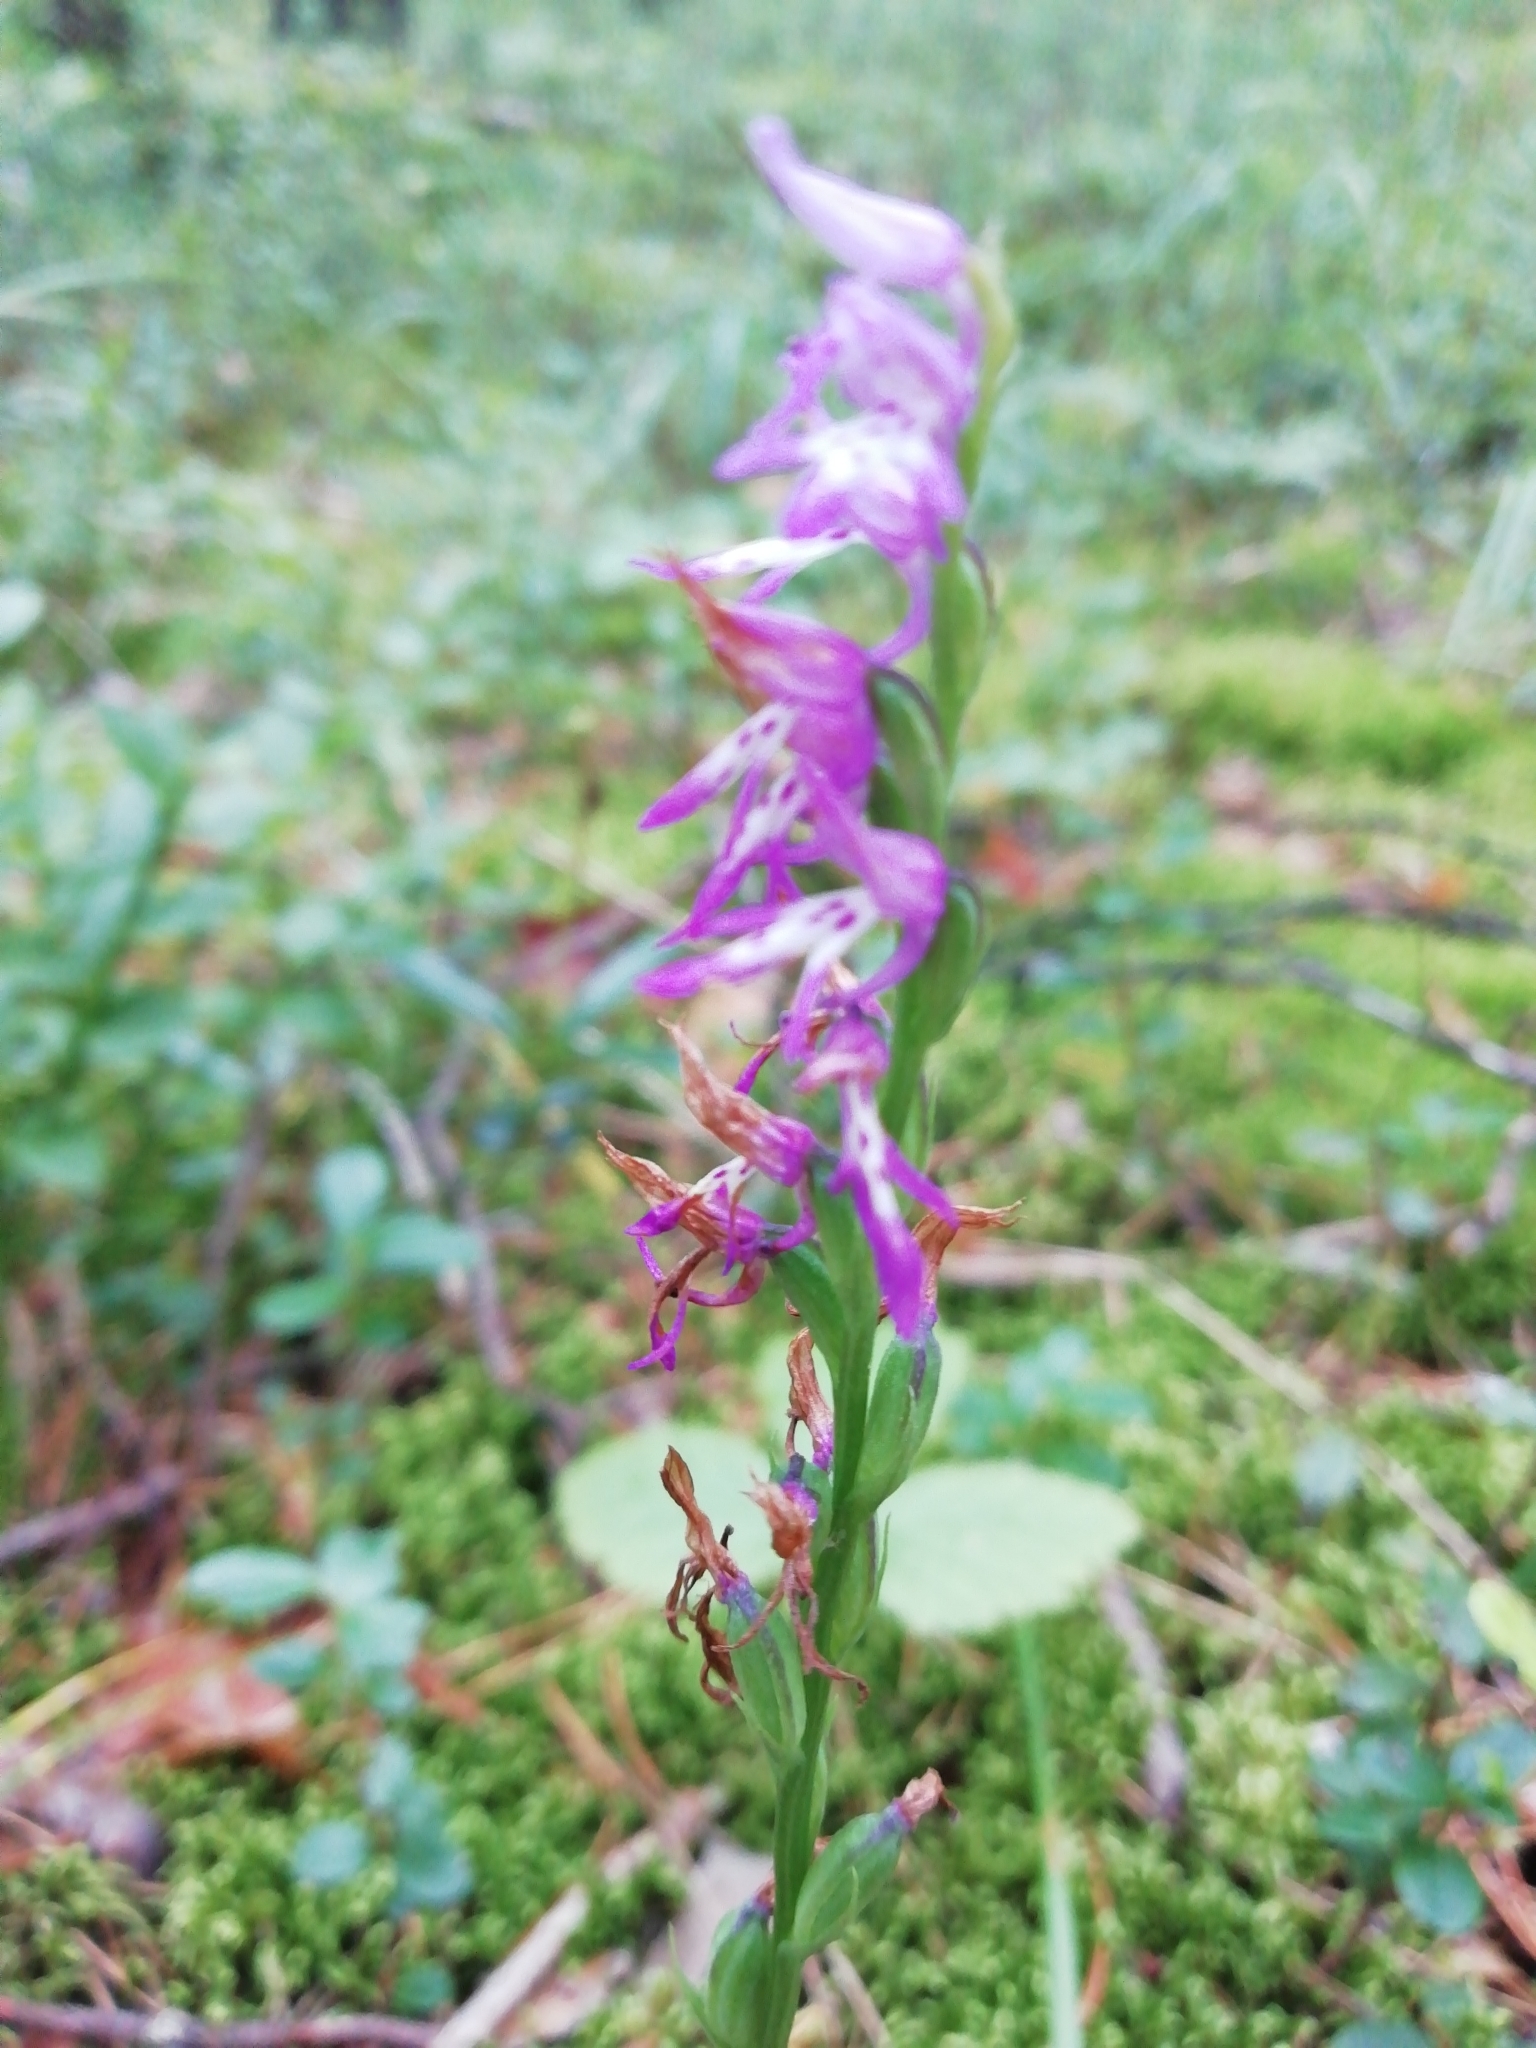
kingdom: Plantae
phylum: Tracheophyta
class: Liliopsida
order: Asparagales
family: Orchidaceae
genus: Hemipilia
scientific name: Hemipilia cucullata
